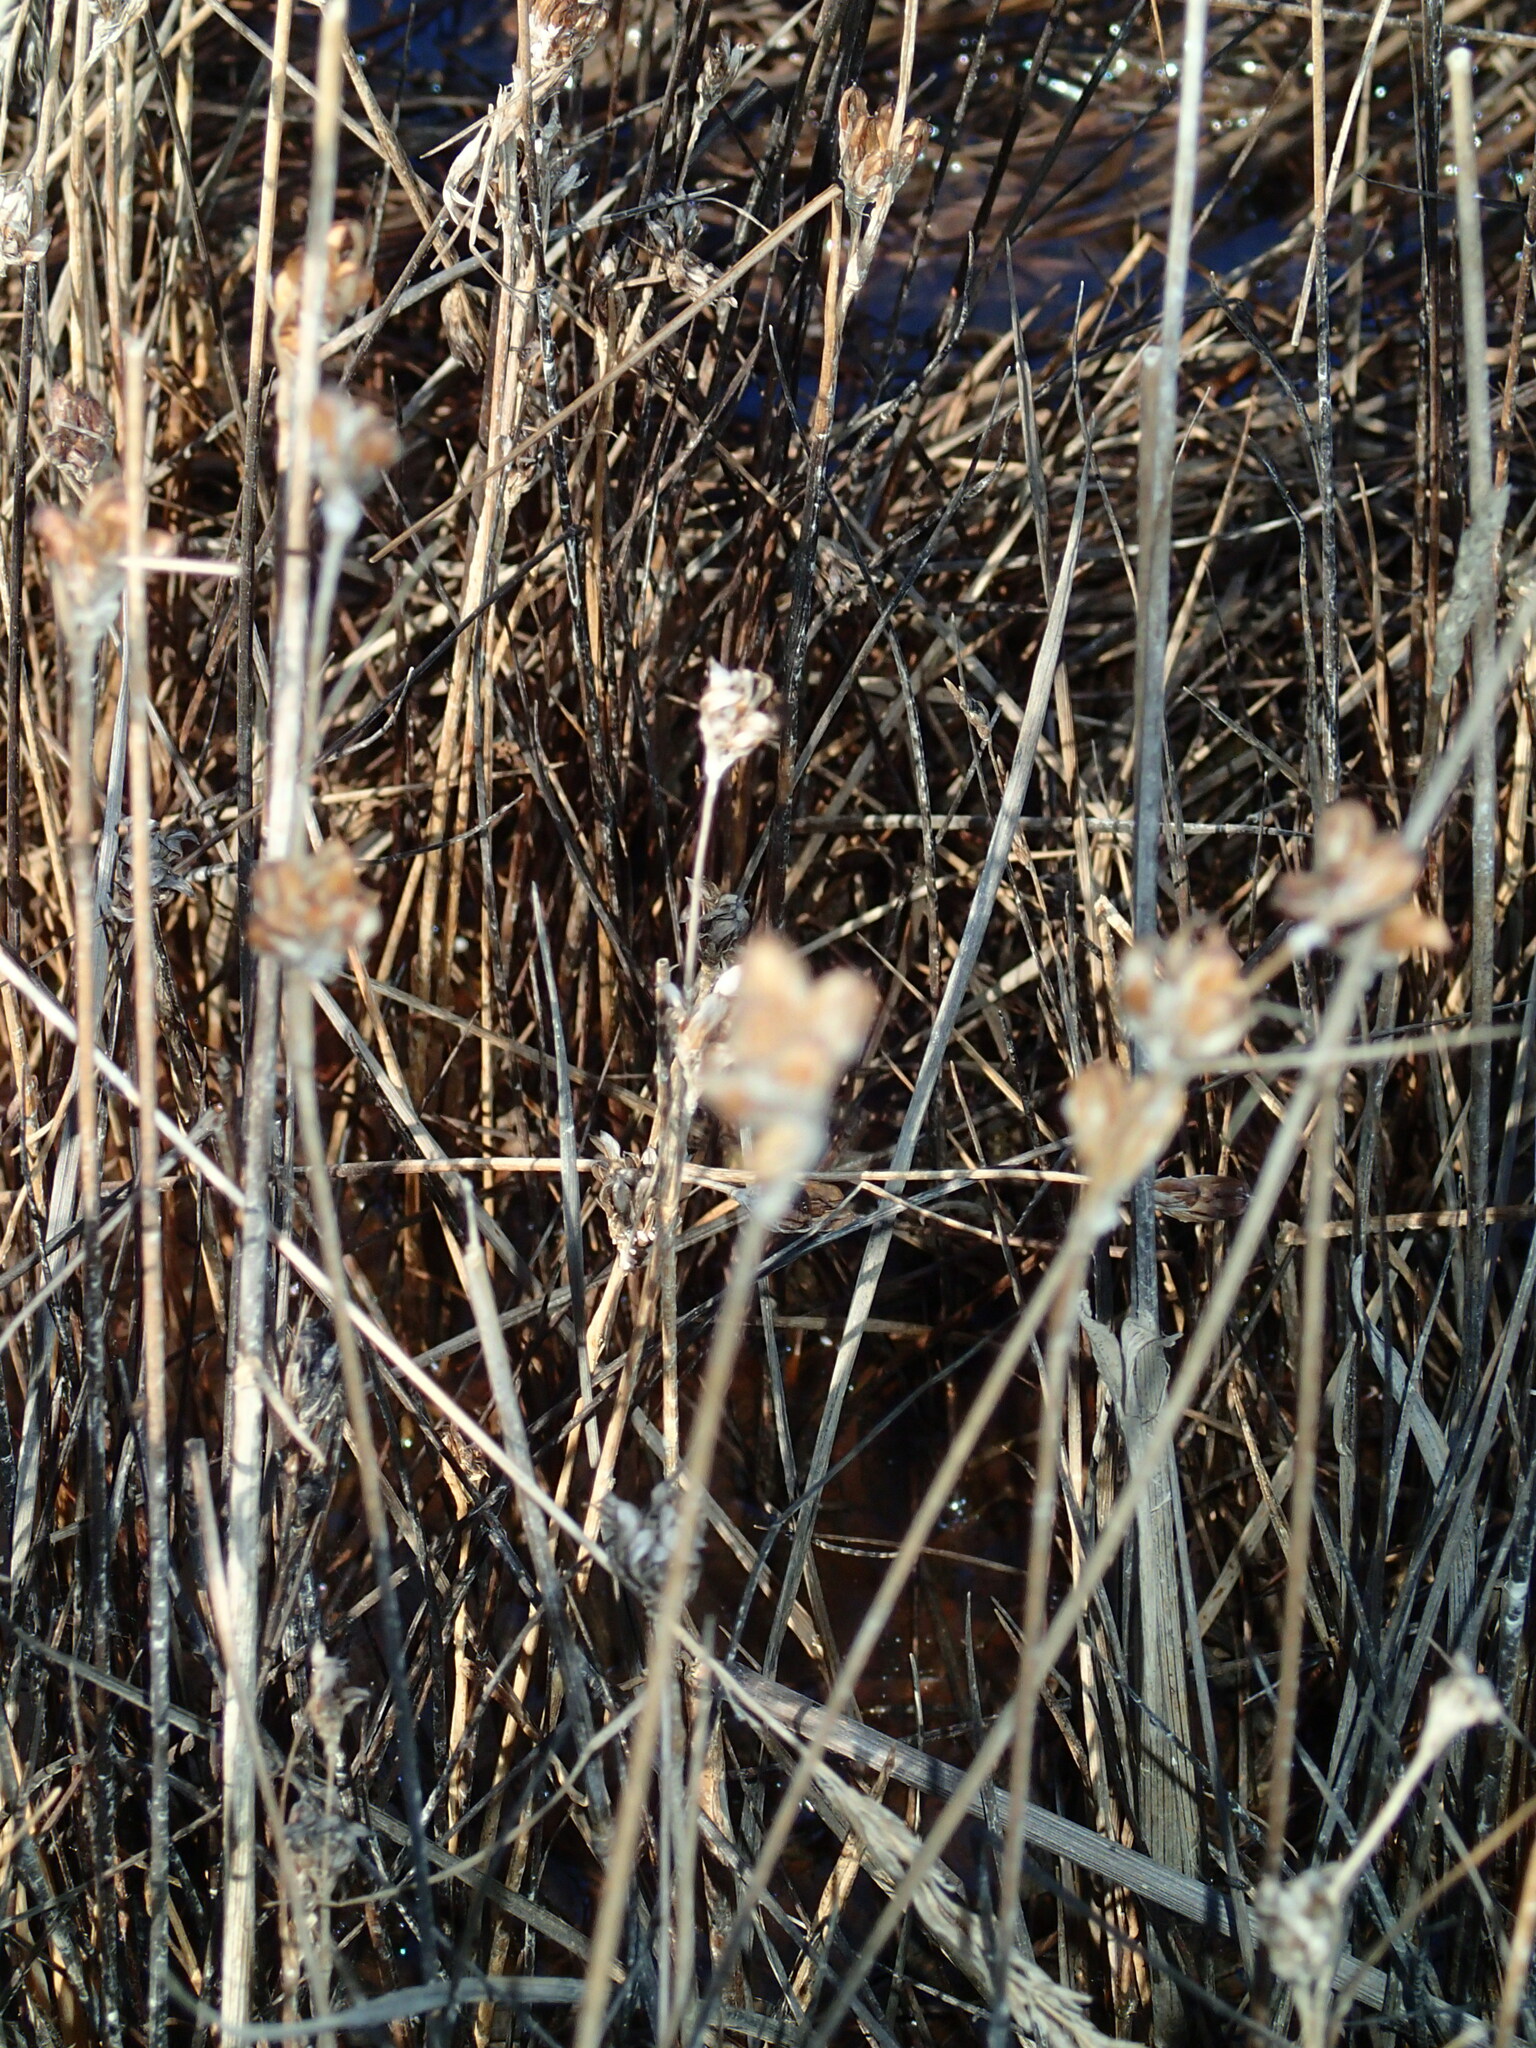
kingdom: Plantae
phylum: Tracheophyta
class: Liliopsida
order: Poales
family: Juncaceae
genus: Juncus
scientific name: Juncus castaneus
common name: Chestnut rush
